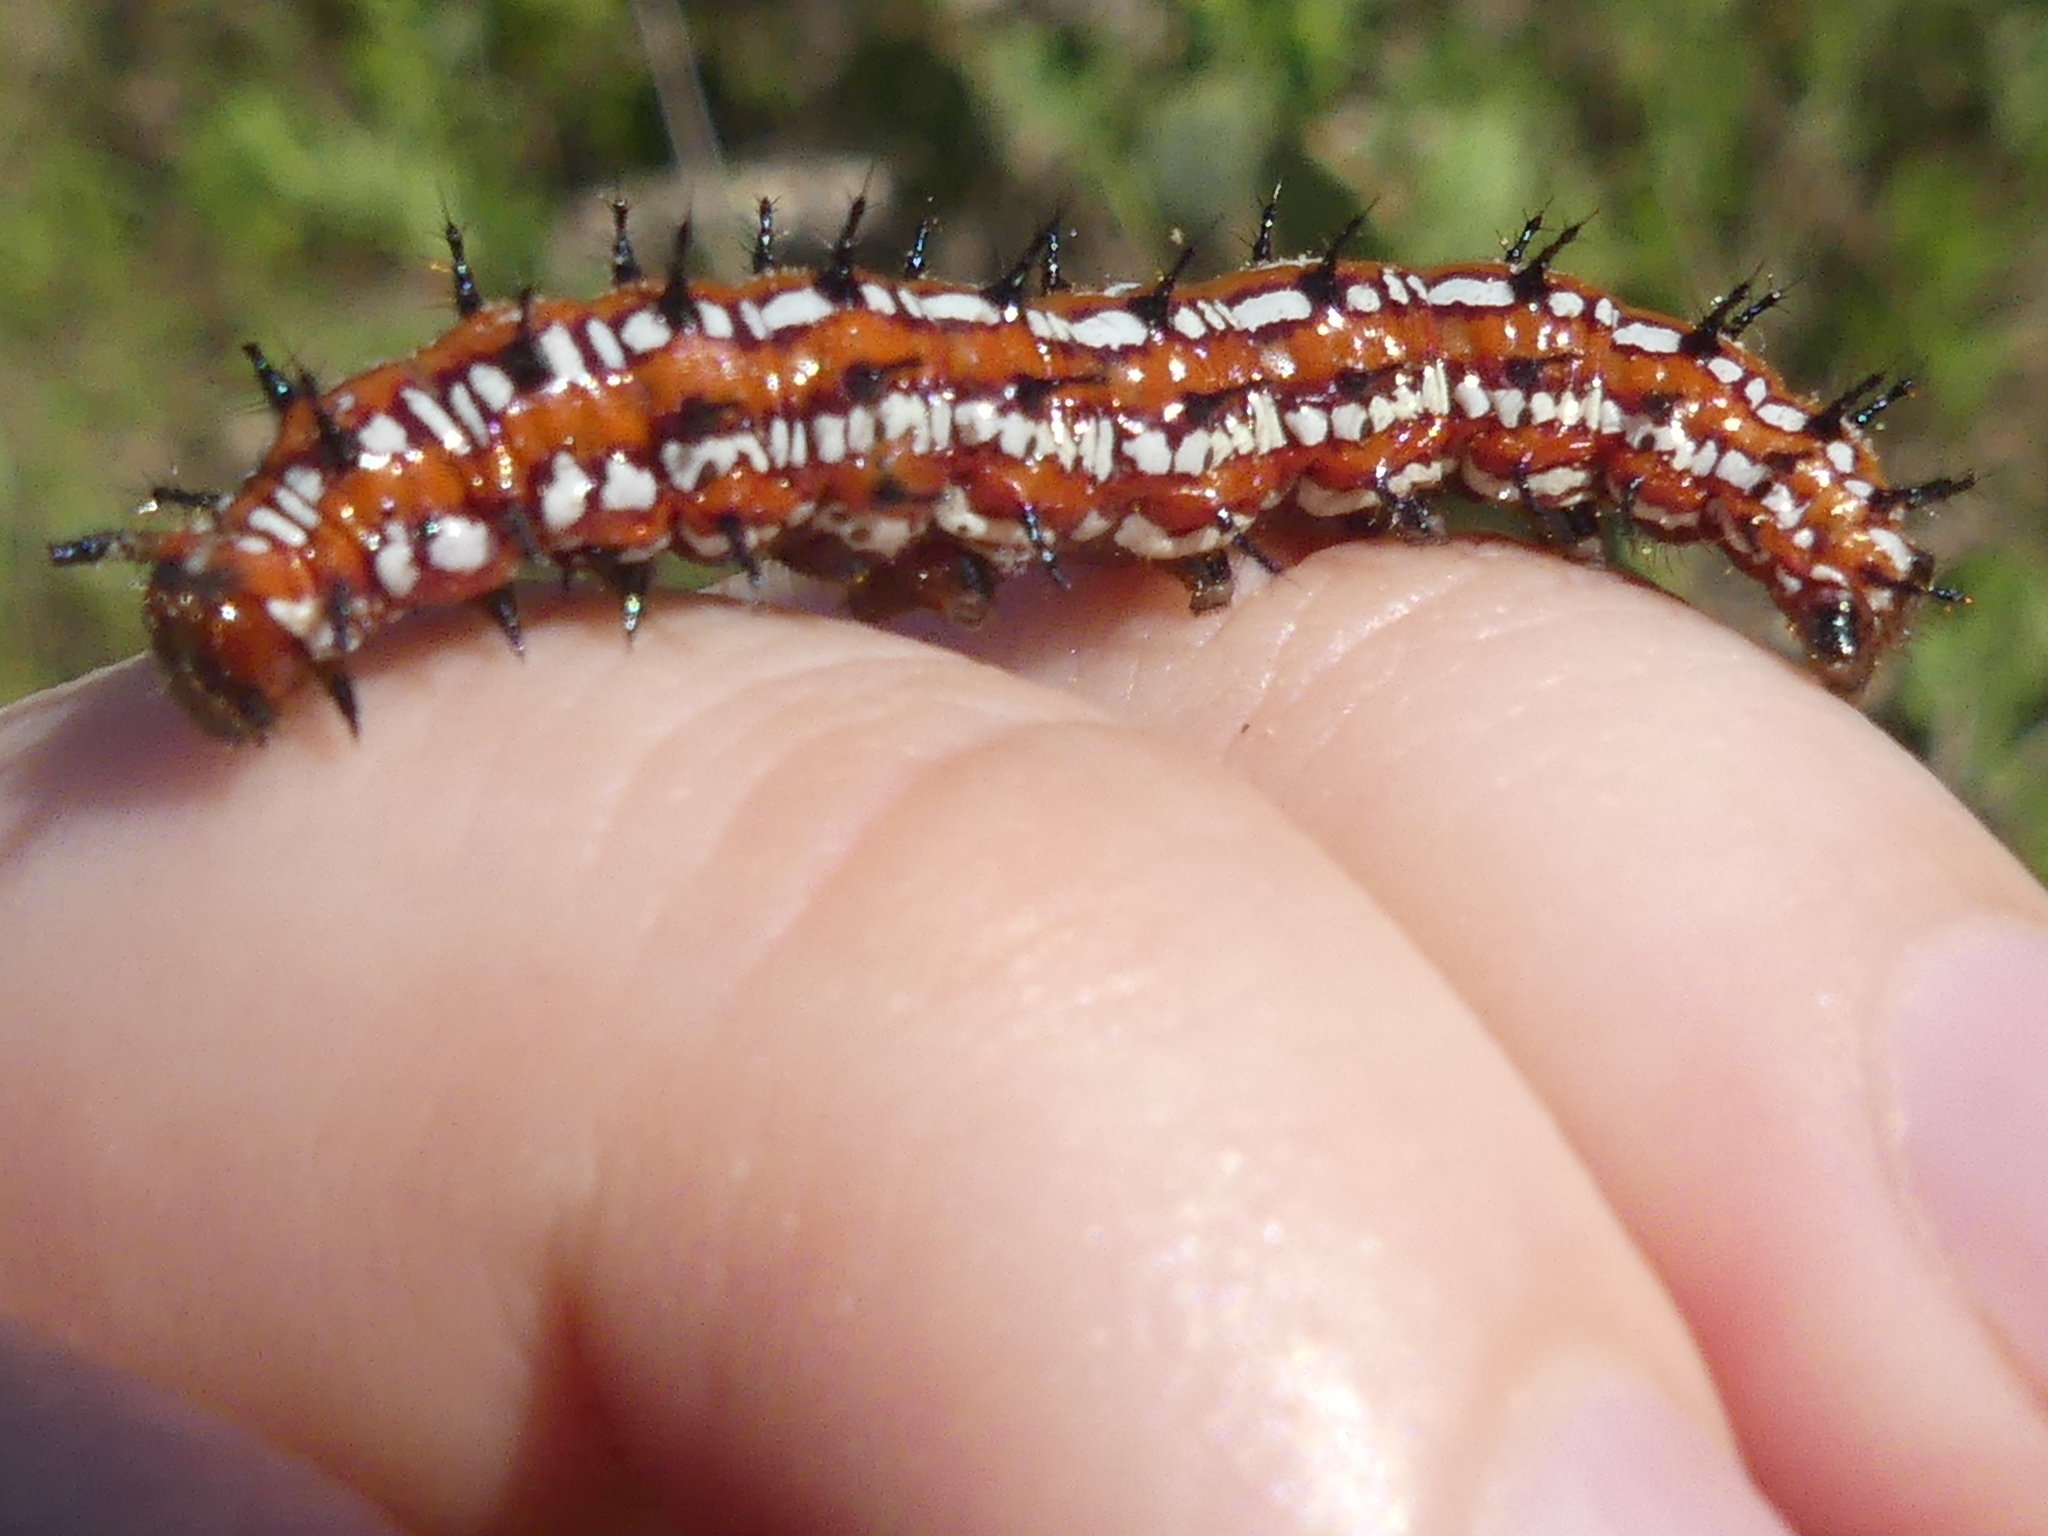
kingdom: Animalia
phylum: Arthropoda
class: Insecta
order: Lepidoptera
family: Nymphalidae
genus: Euptoieta
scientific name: Euptoieta claudia
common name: Variegated fritillary
